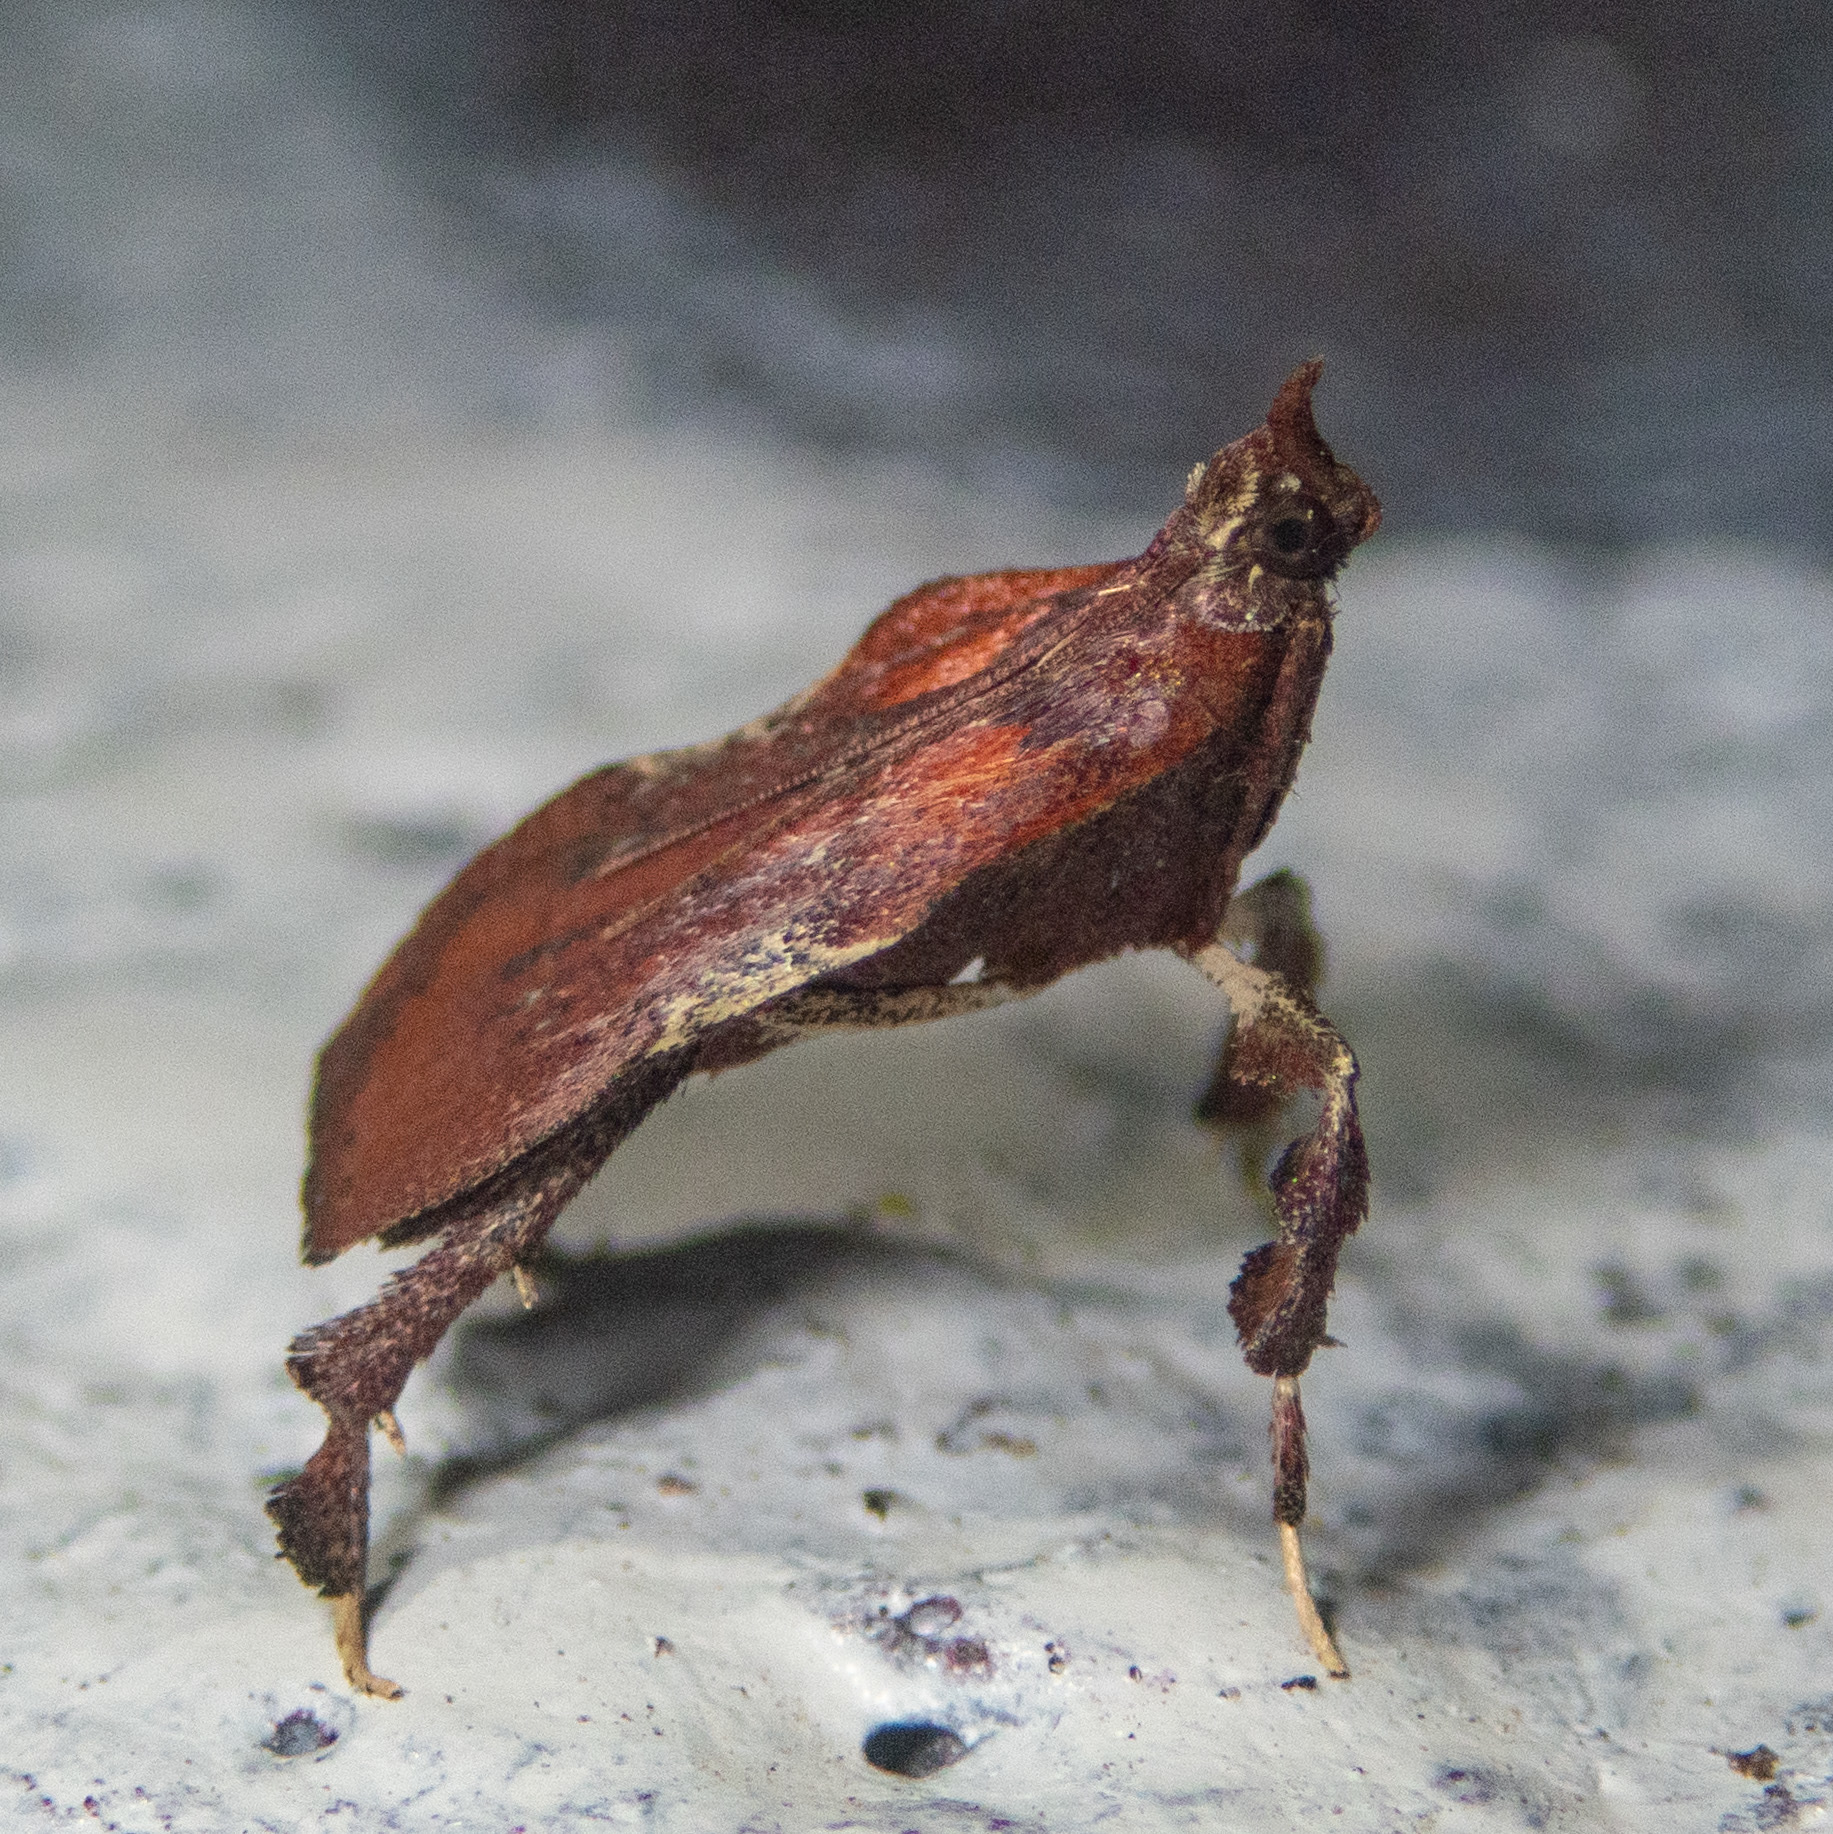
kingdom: Animalia
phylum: Arthropoda
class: Insecta
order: Lepidoptera
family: Pyralidae
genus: Galasa
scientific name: Galasa nigrinodis
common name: Boxwood leaftier moth
